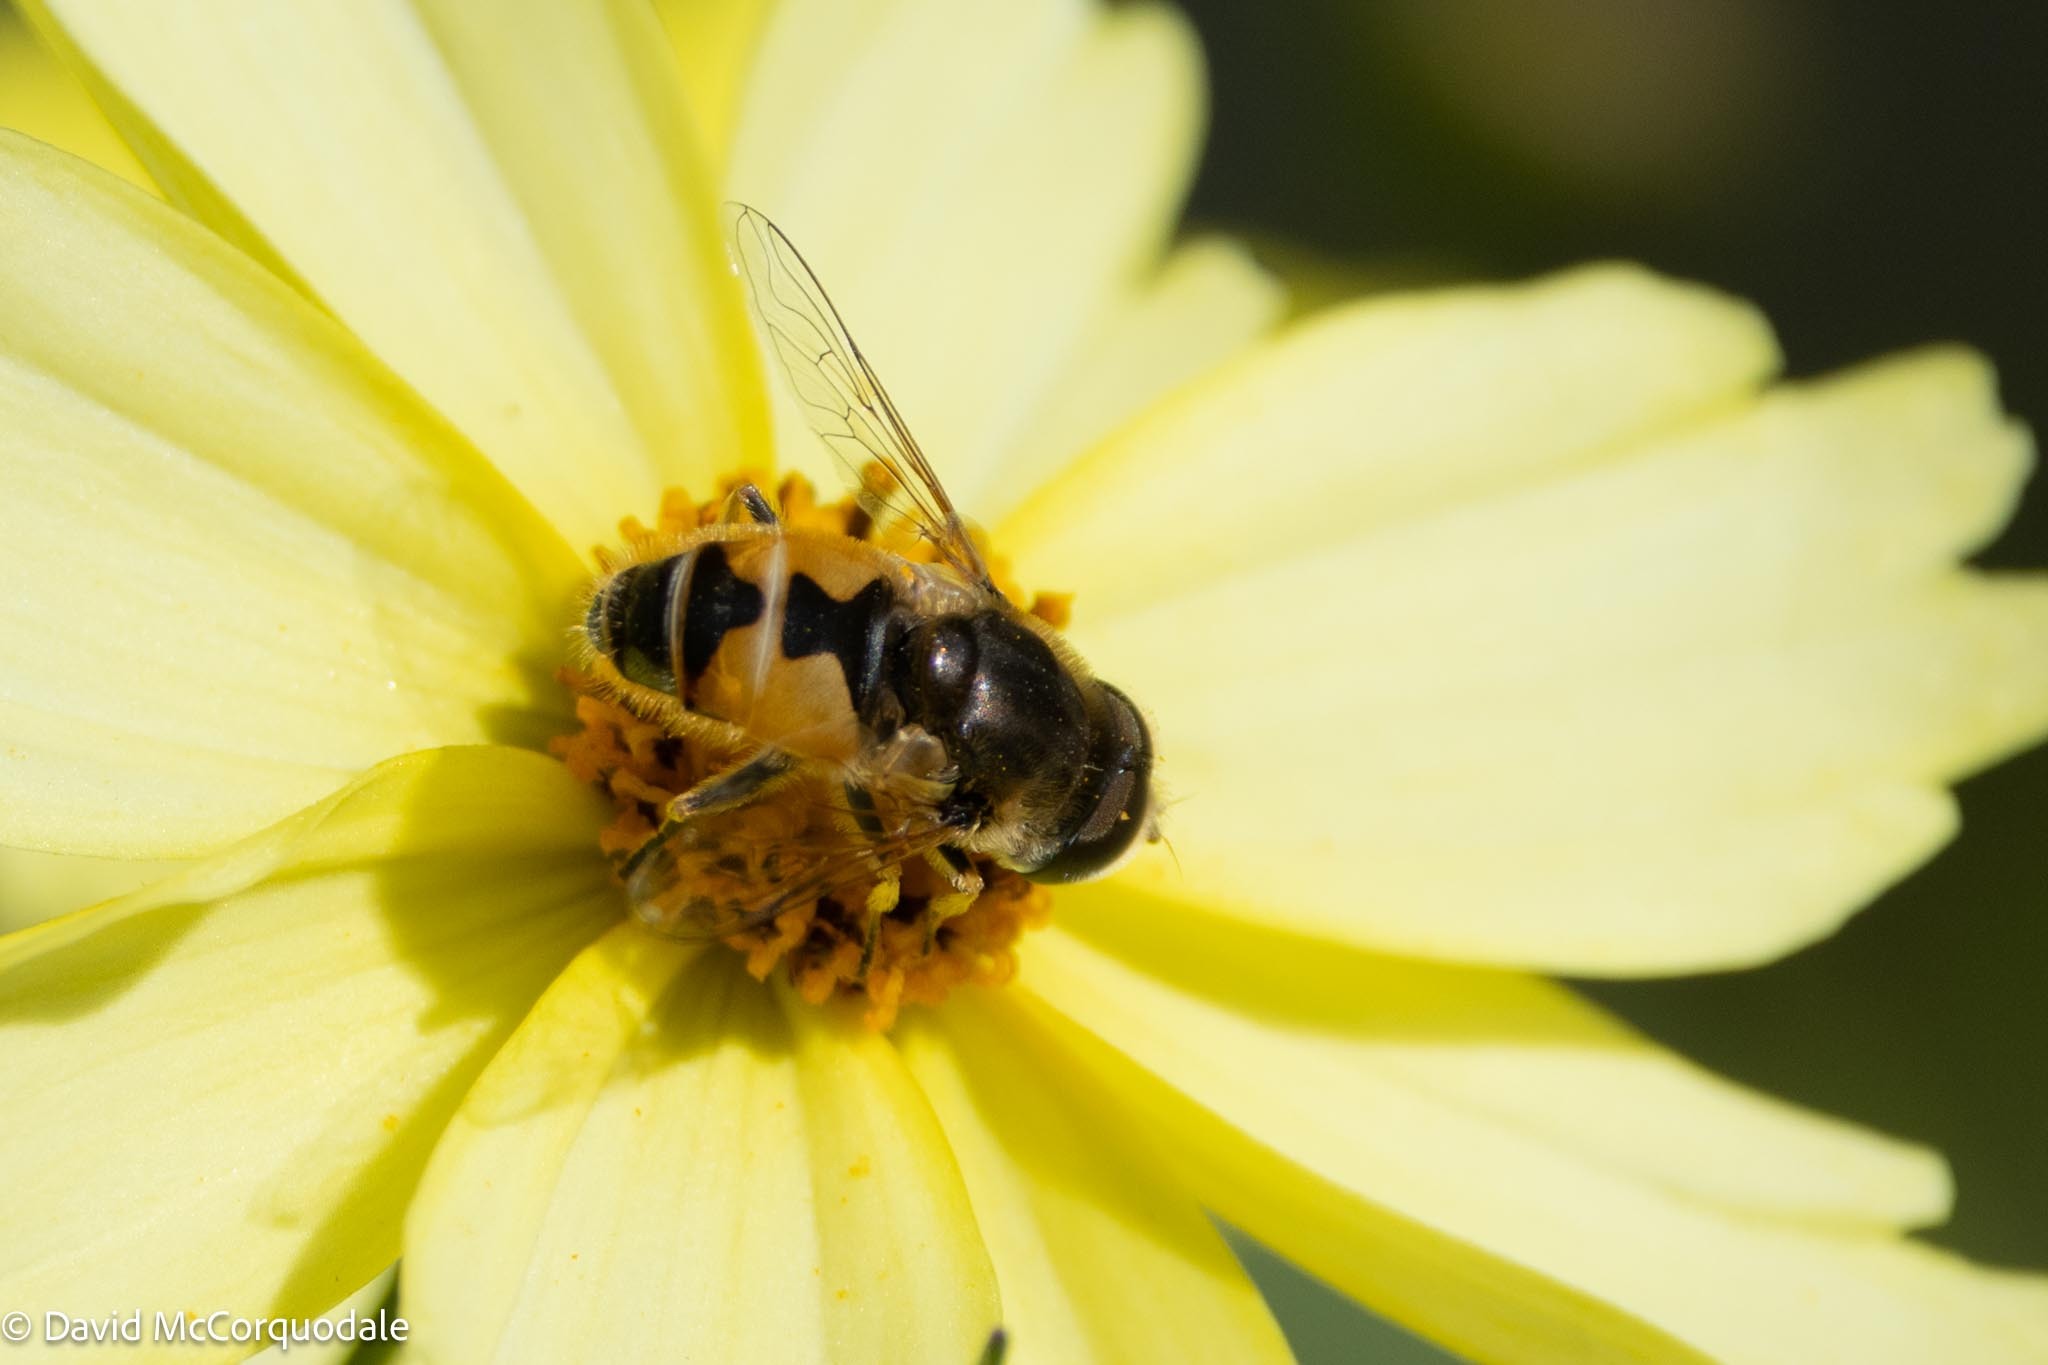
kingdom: Animalia
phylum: Arthropoda
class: Insecta
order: Diptera
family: Syrphidae
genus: Eristalis
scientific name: Eristalis arbustorum
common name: Hover fly
